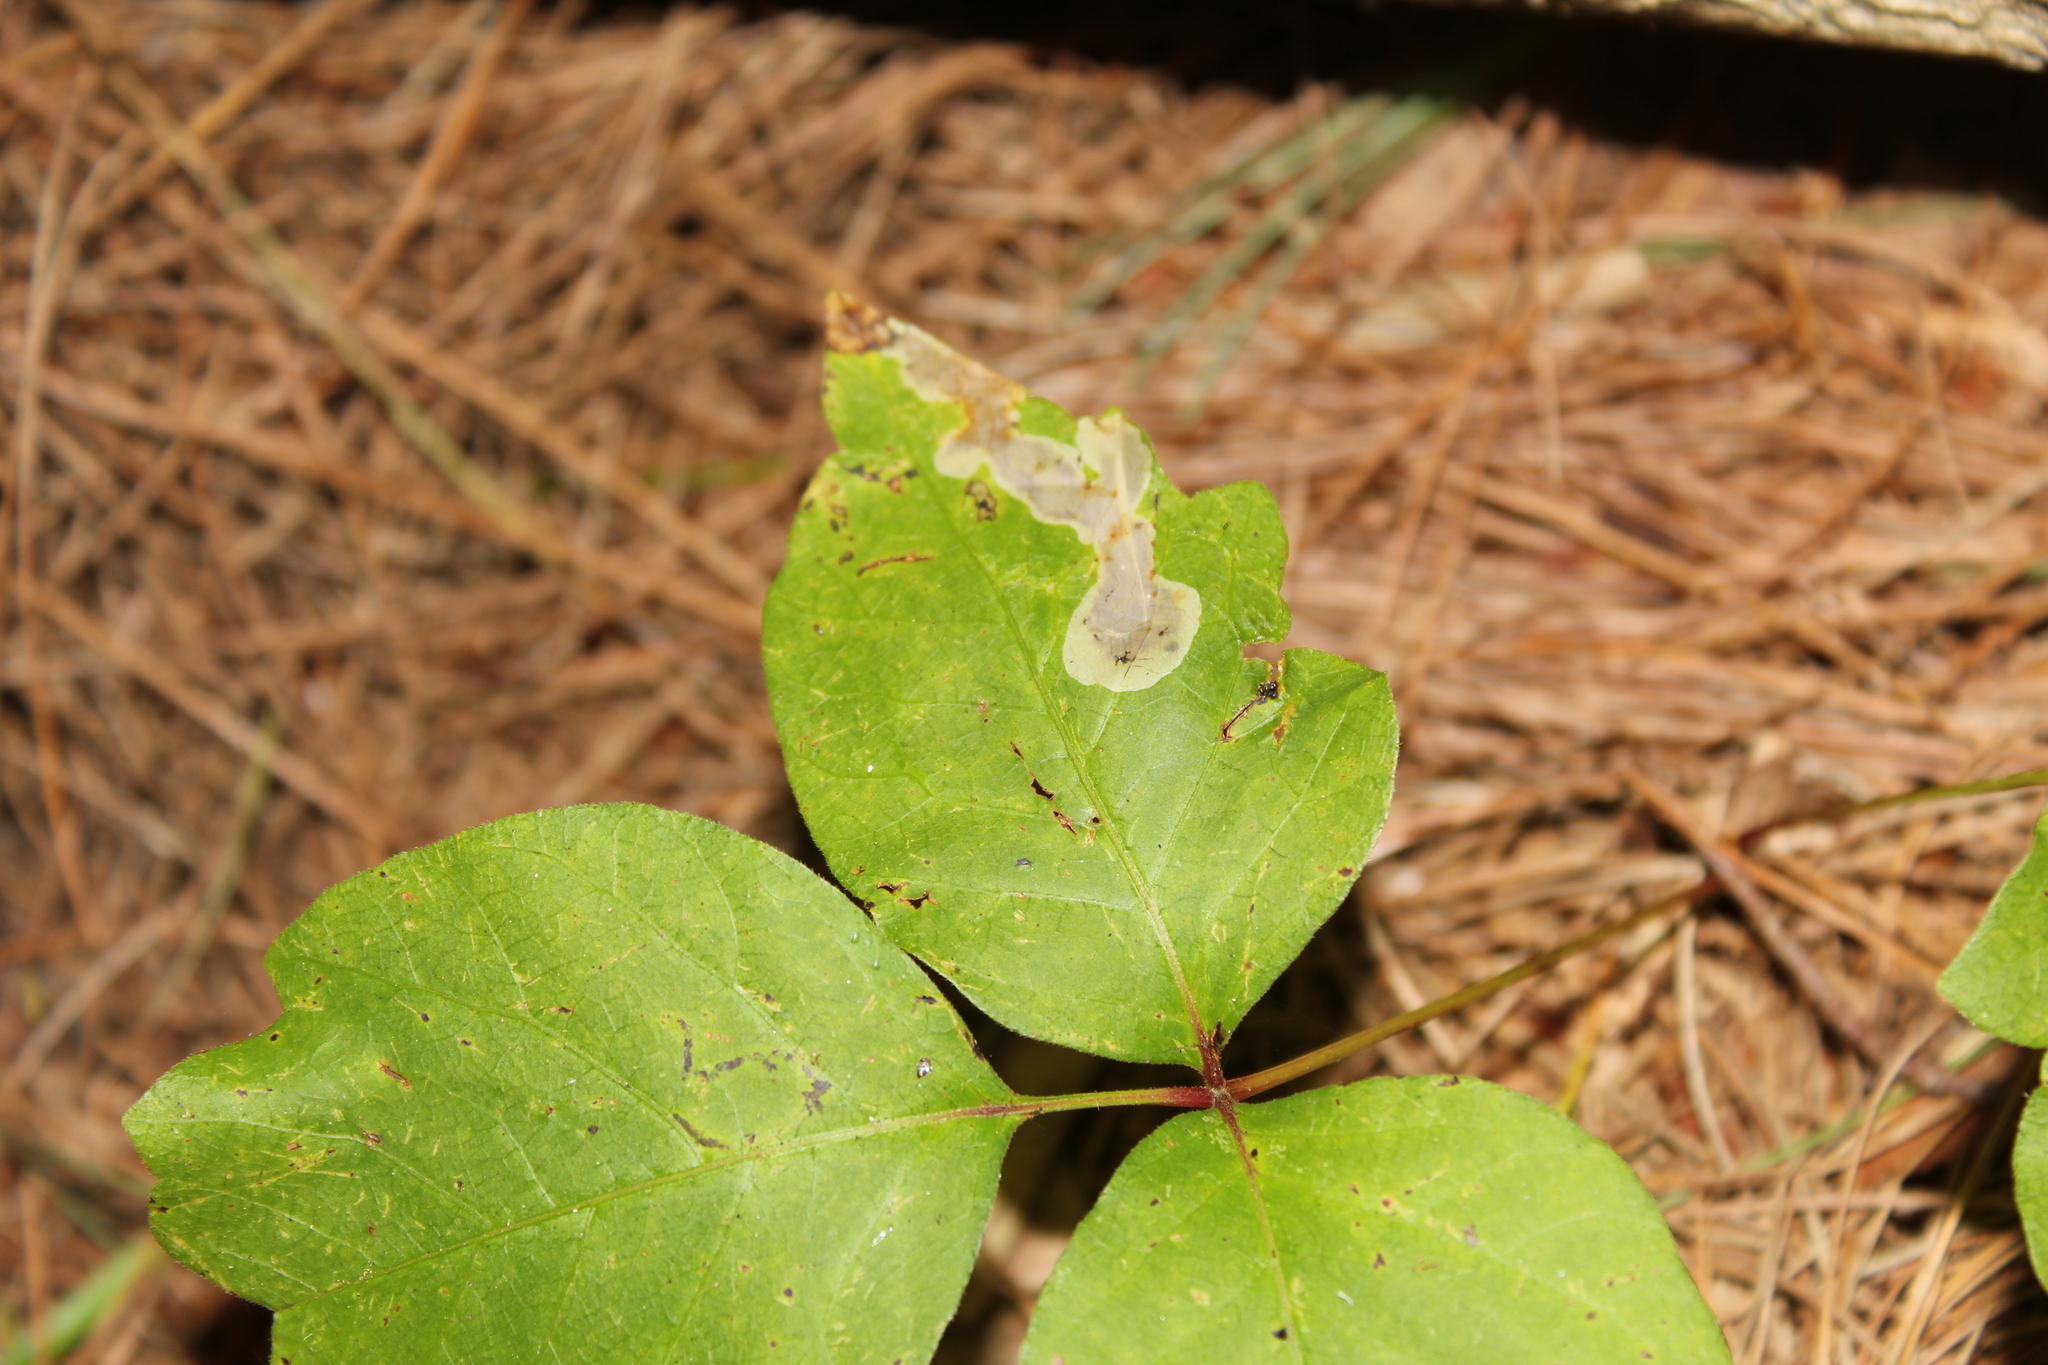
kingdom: Animalia
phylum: Arthropoda
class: Insecta
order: Lepidoptera
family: Gracillariidae
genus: Cameraria
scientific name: Cameraria guttifinitella
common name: Poison ivy leaf-miner moth
